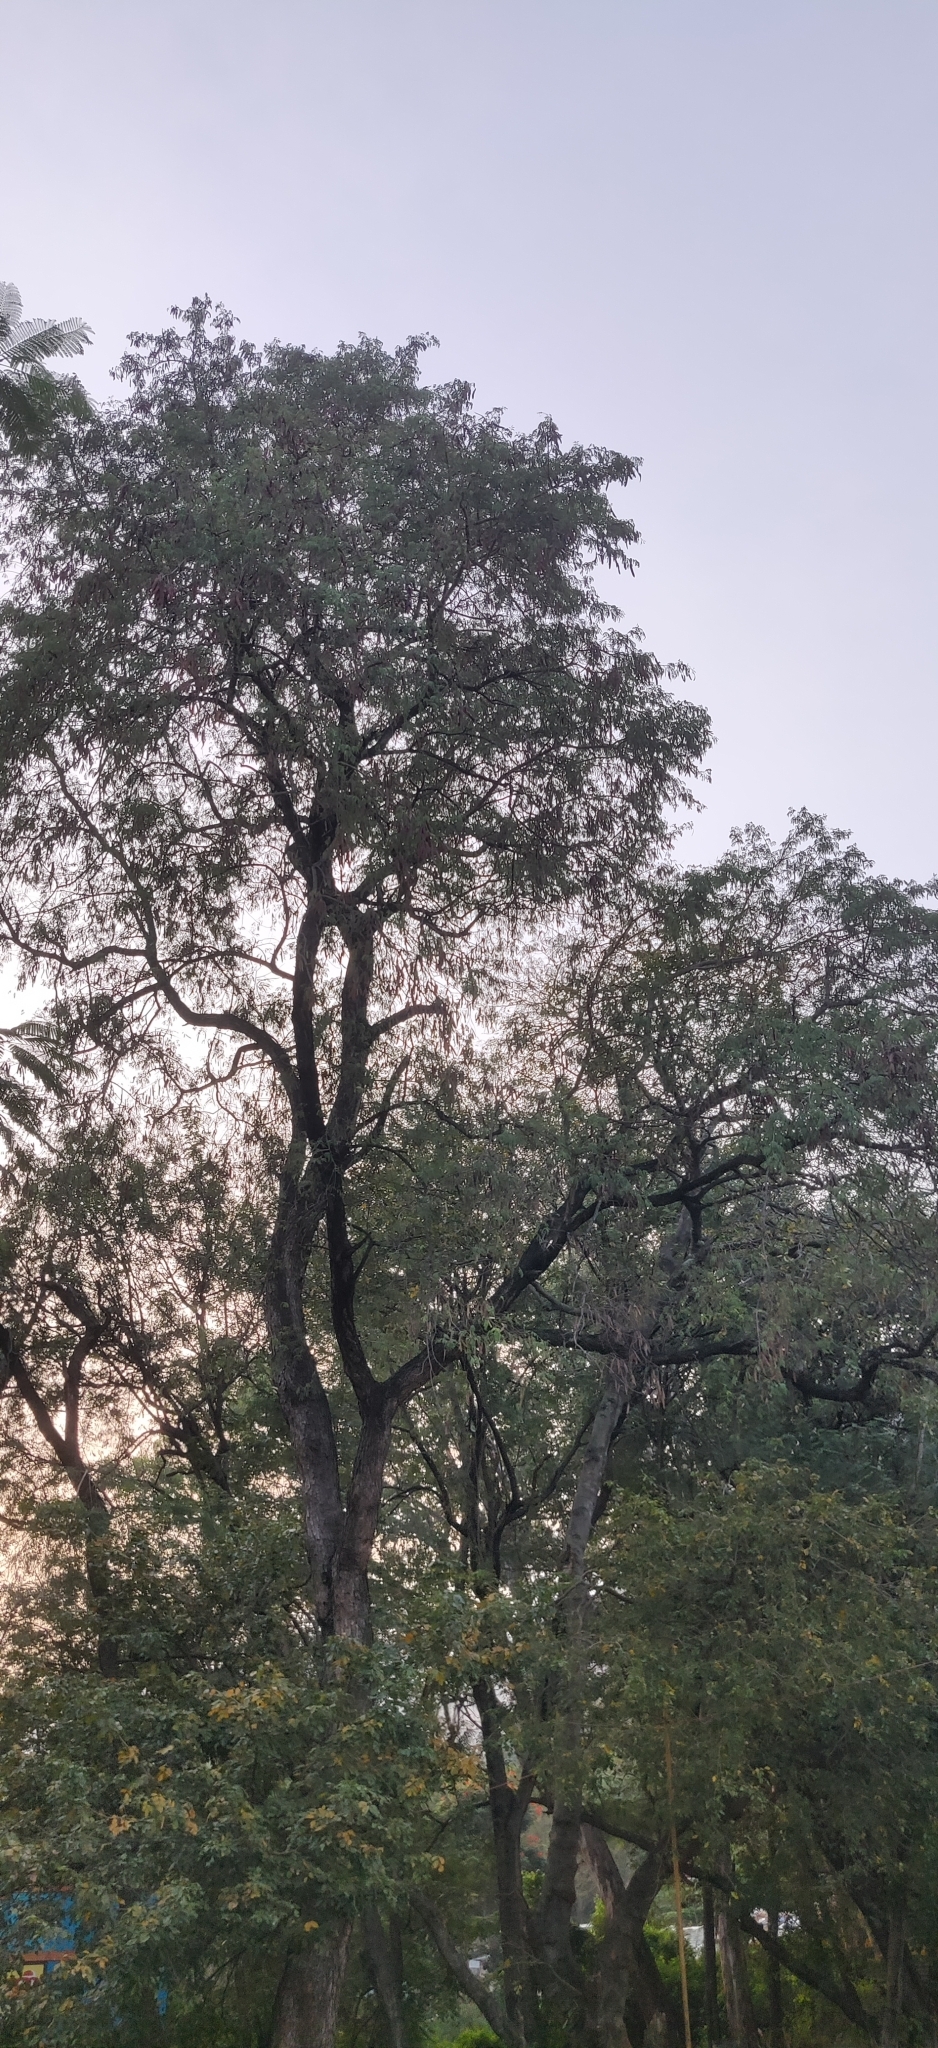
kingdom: Plantae
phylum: Tracheophyta
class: Magnoliopsida
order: Fabales
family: Fabaceae
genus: Albizia
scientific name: Albizia amara
